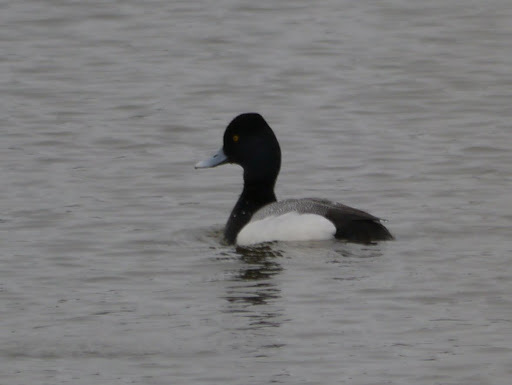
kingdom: Animalia
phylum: Chordata
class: Aves
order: Anseriformes
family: Anatidae
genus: Aythya
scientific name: Aythya affinis
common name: Lesser scaup
